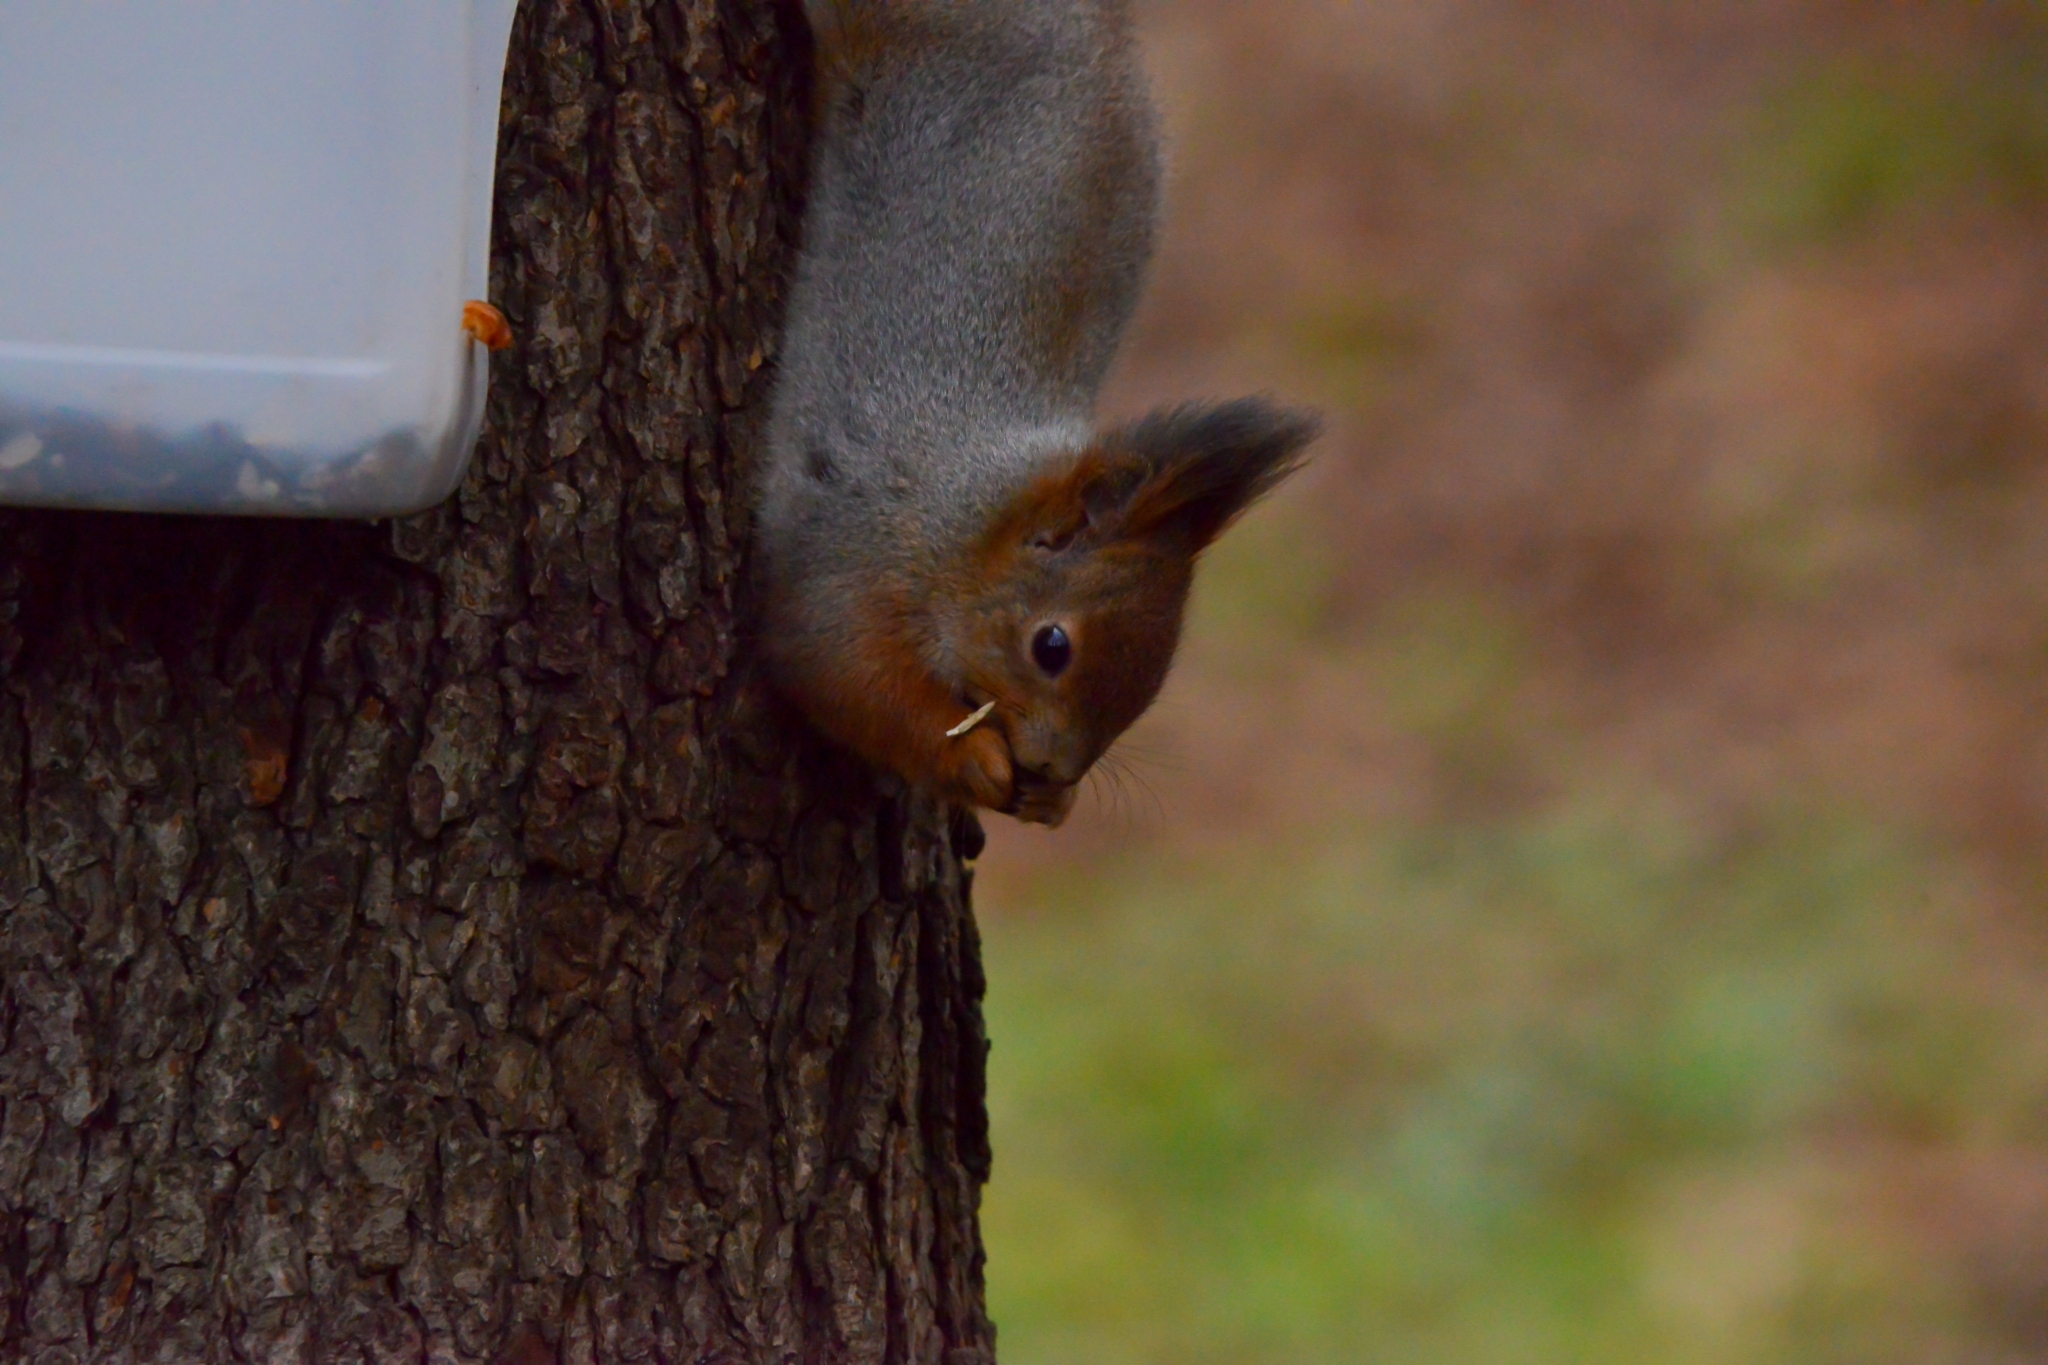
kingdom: Animalia
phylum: Chordata
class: Mammalia
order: Rodentia
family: Sciuridae
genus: Sciurus
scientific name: Sciurus vulgaris
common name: Eurasian red squirrel
